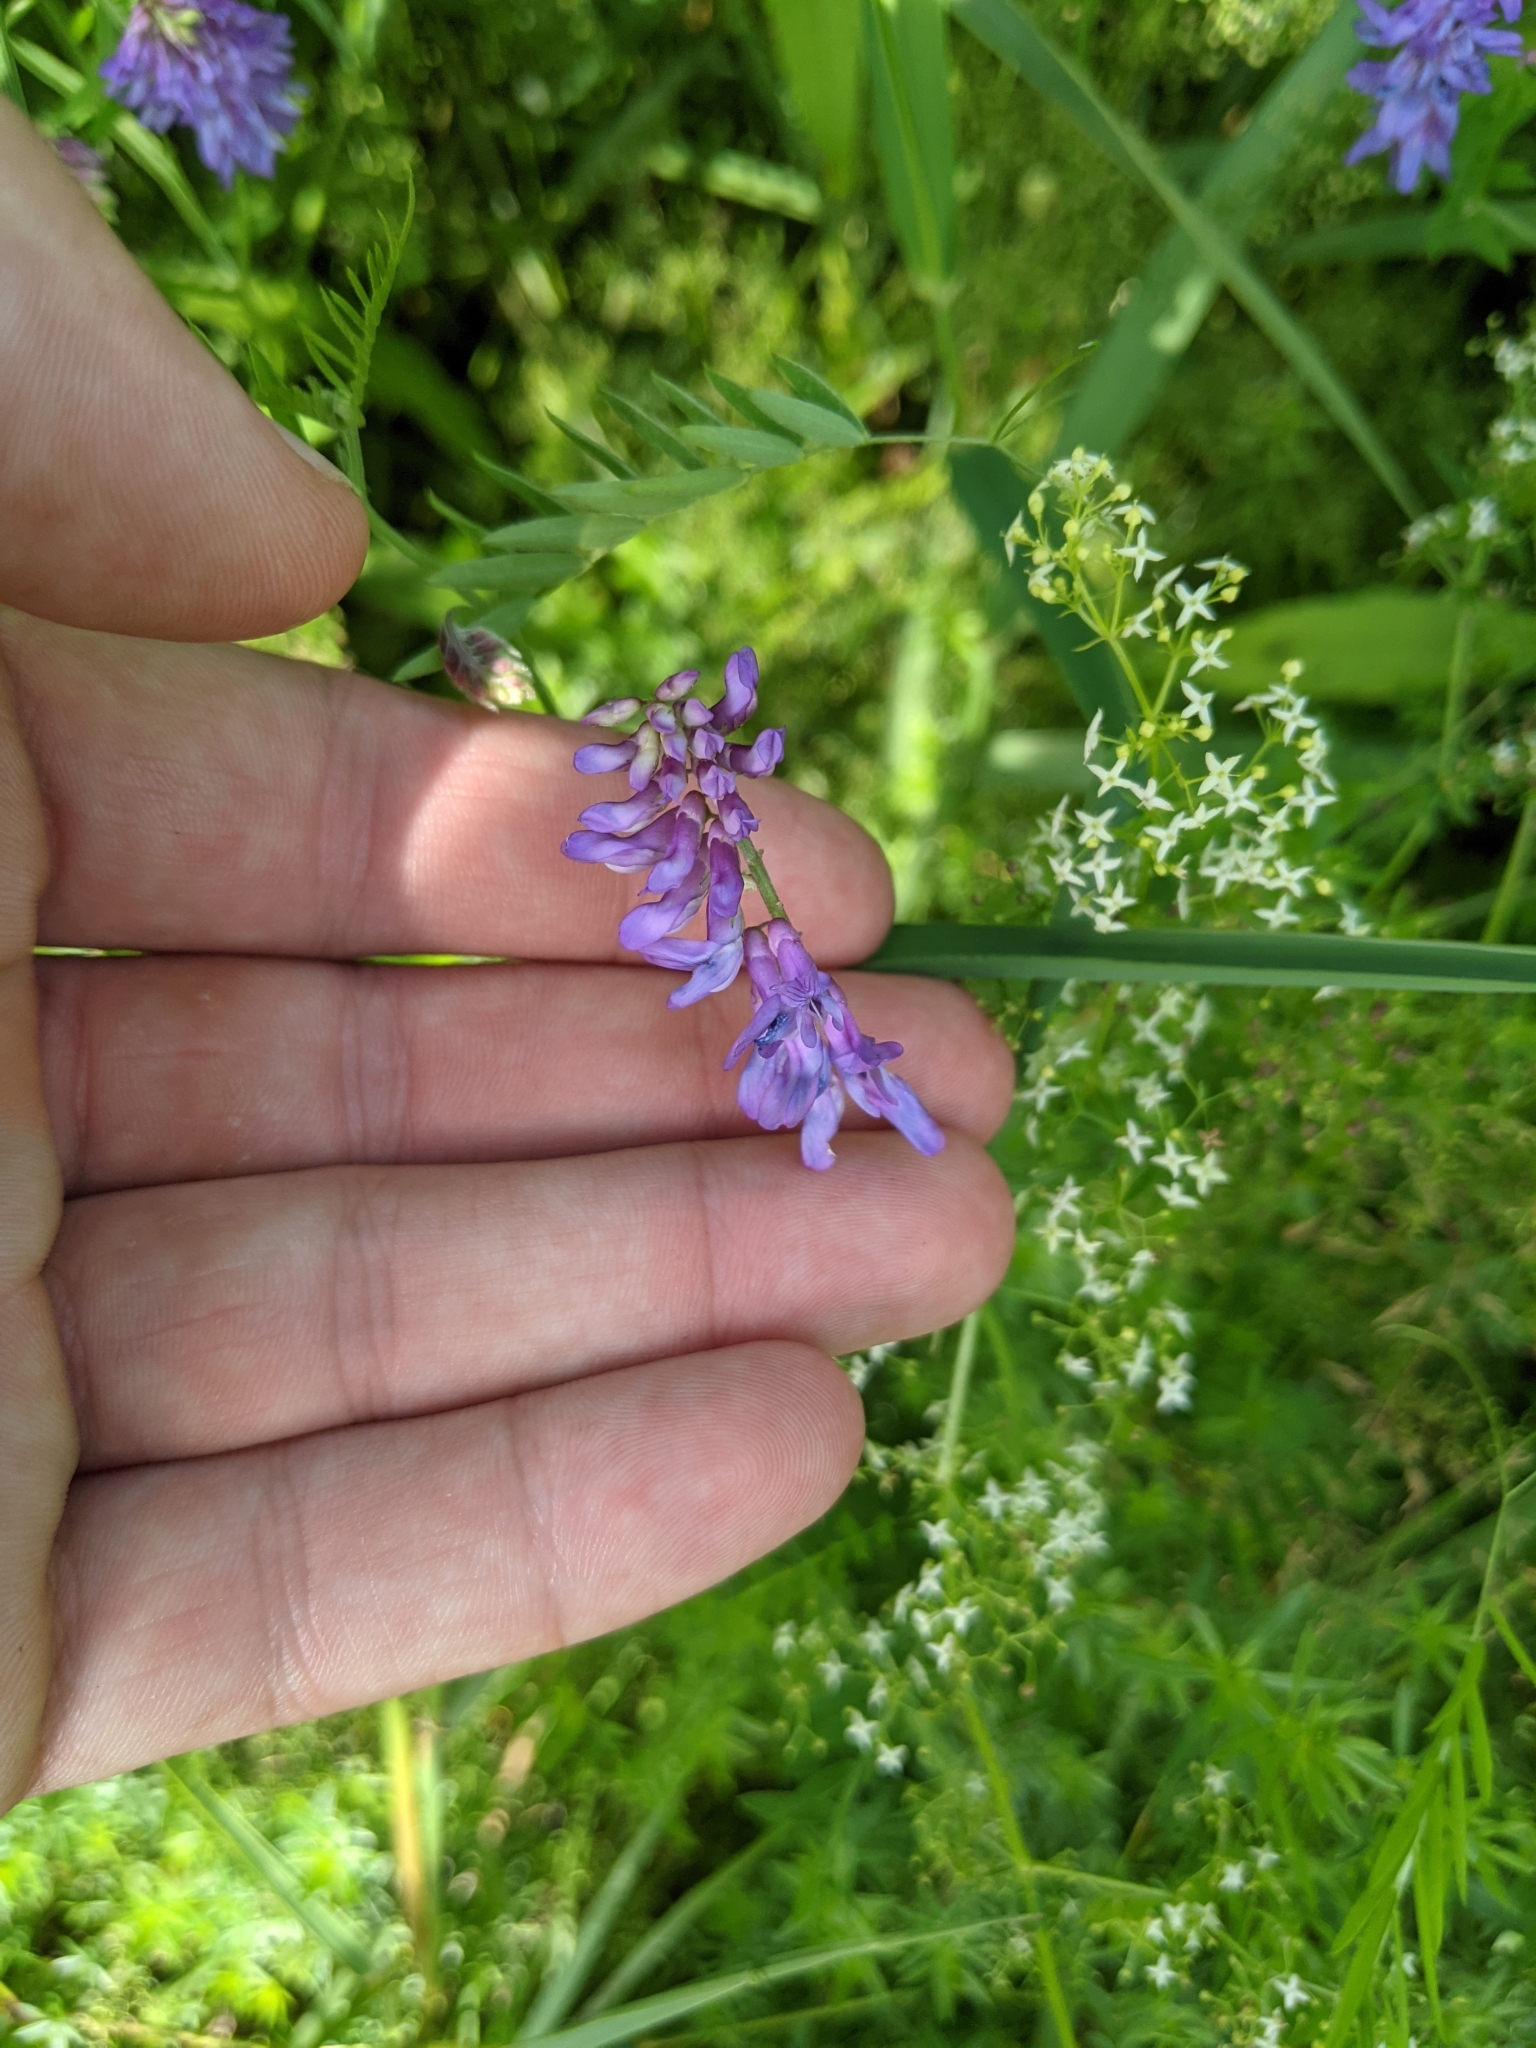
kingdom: Plantae
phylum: Tracheophyta
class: Magnoliopsida
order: Fabales
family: Fabaceae
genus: Vicia
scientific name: Vicia cracca
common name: Bird vetch
